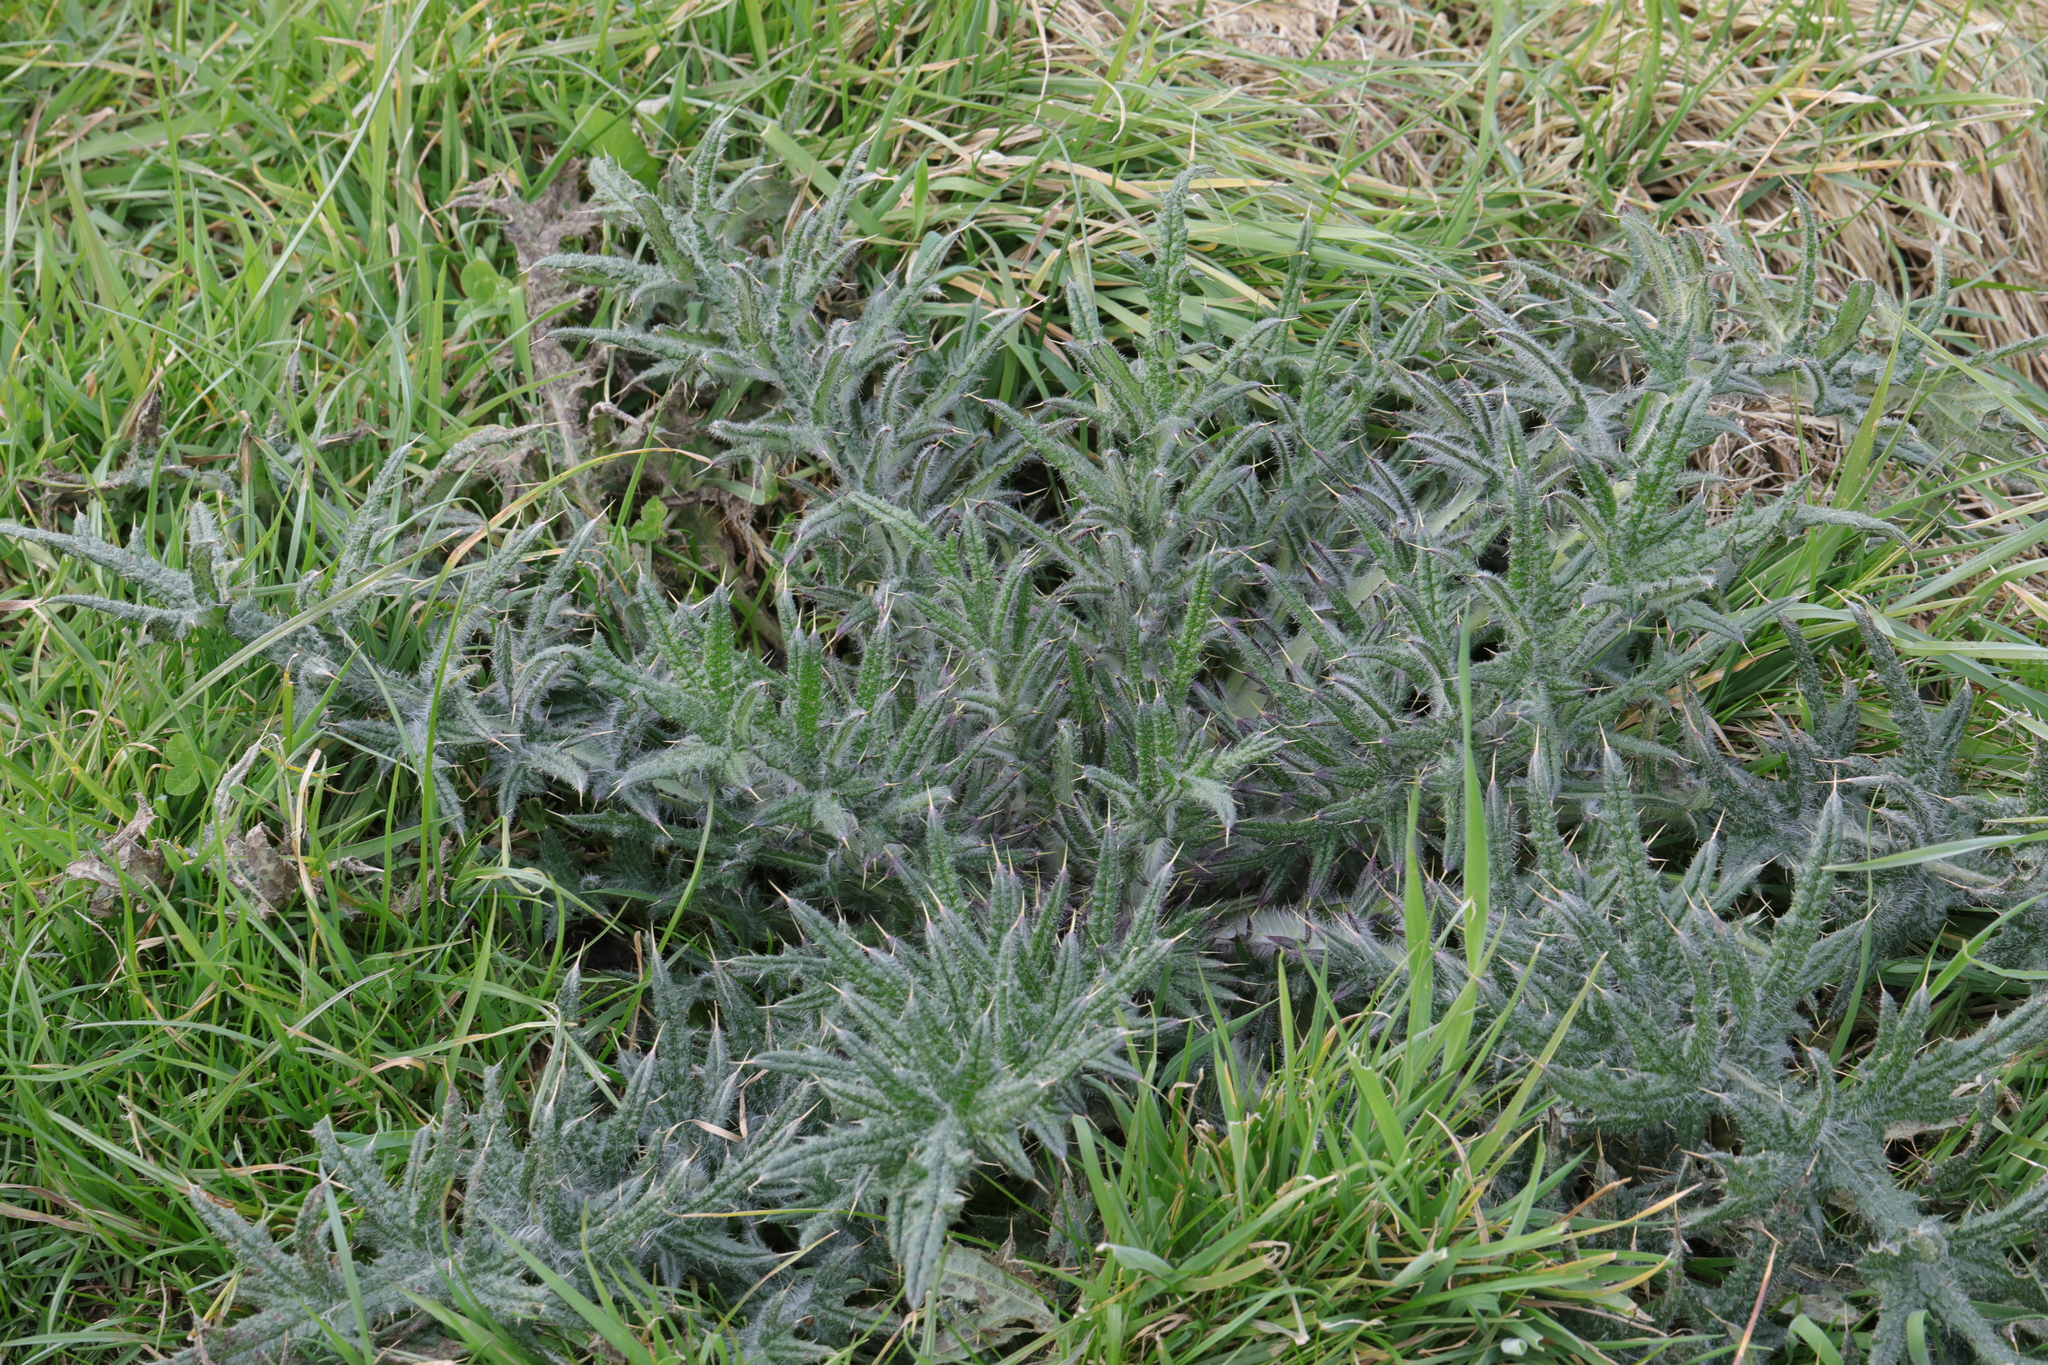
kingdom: Plantae
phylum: Tracheophyta
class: Magnoliopsida
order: Asterales
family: Asteraceae
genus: Cirsium
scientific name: Cirsium vulgare
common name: Bull thistle
